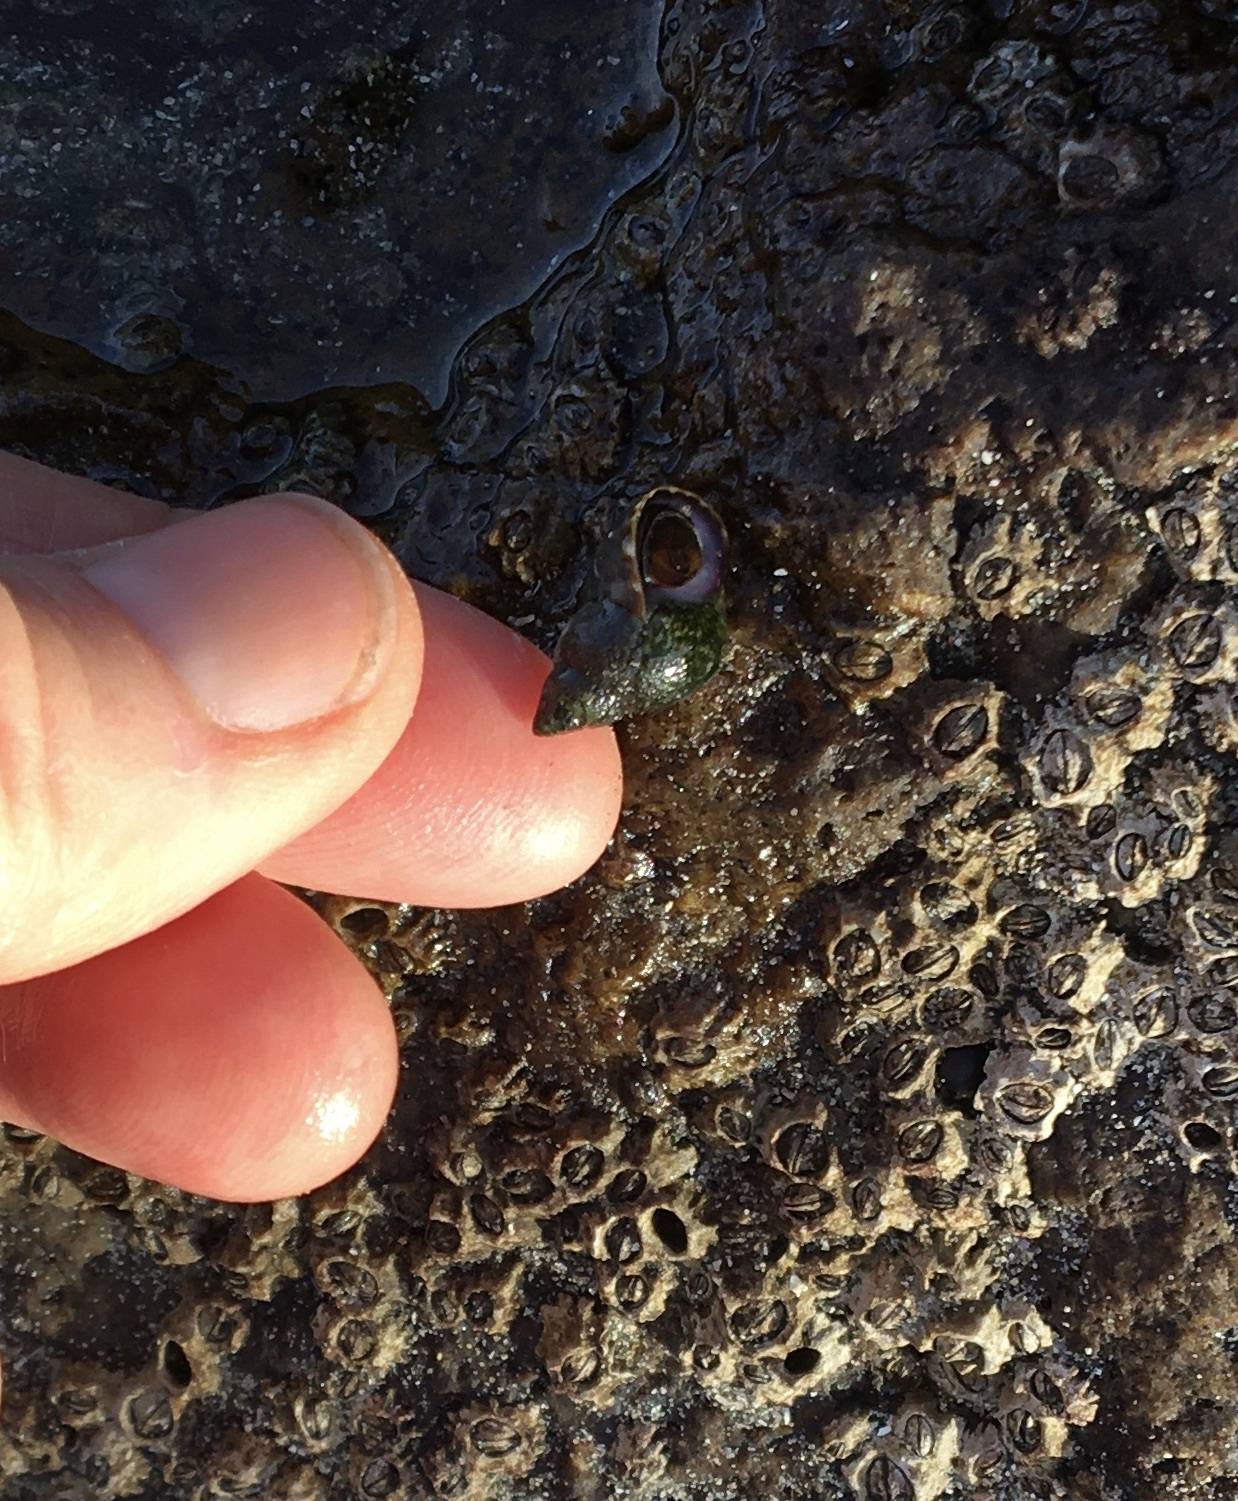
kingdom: Animalia
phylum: Mollusca
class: Gastropoda
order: Littorinimorpha
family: Littorinidae
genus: Littorina
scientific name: Littorina scutulata
